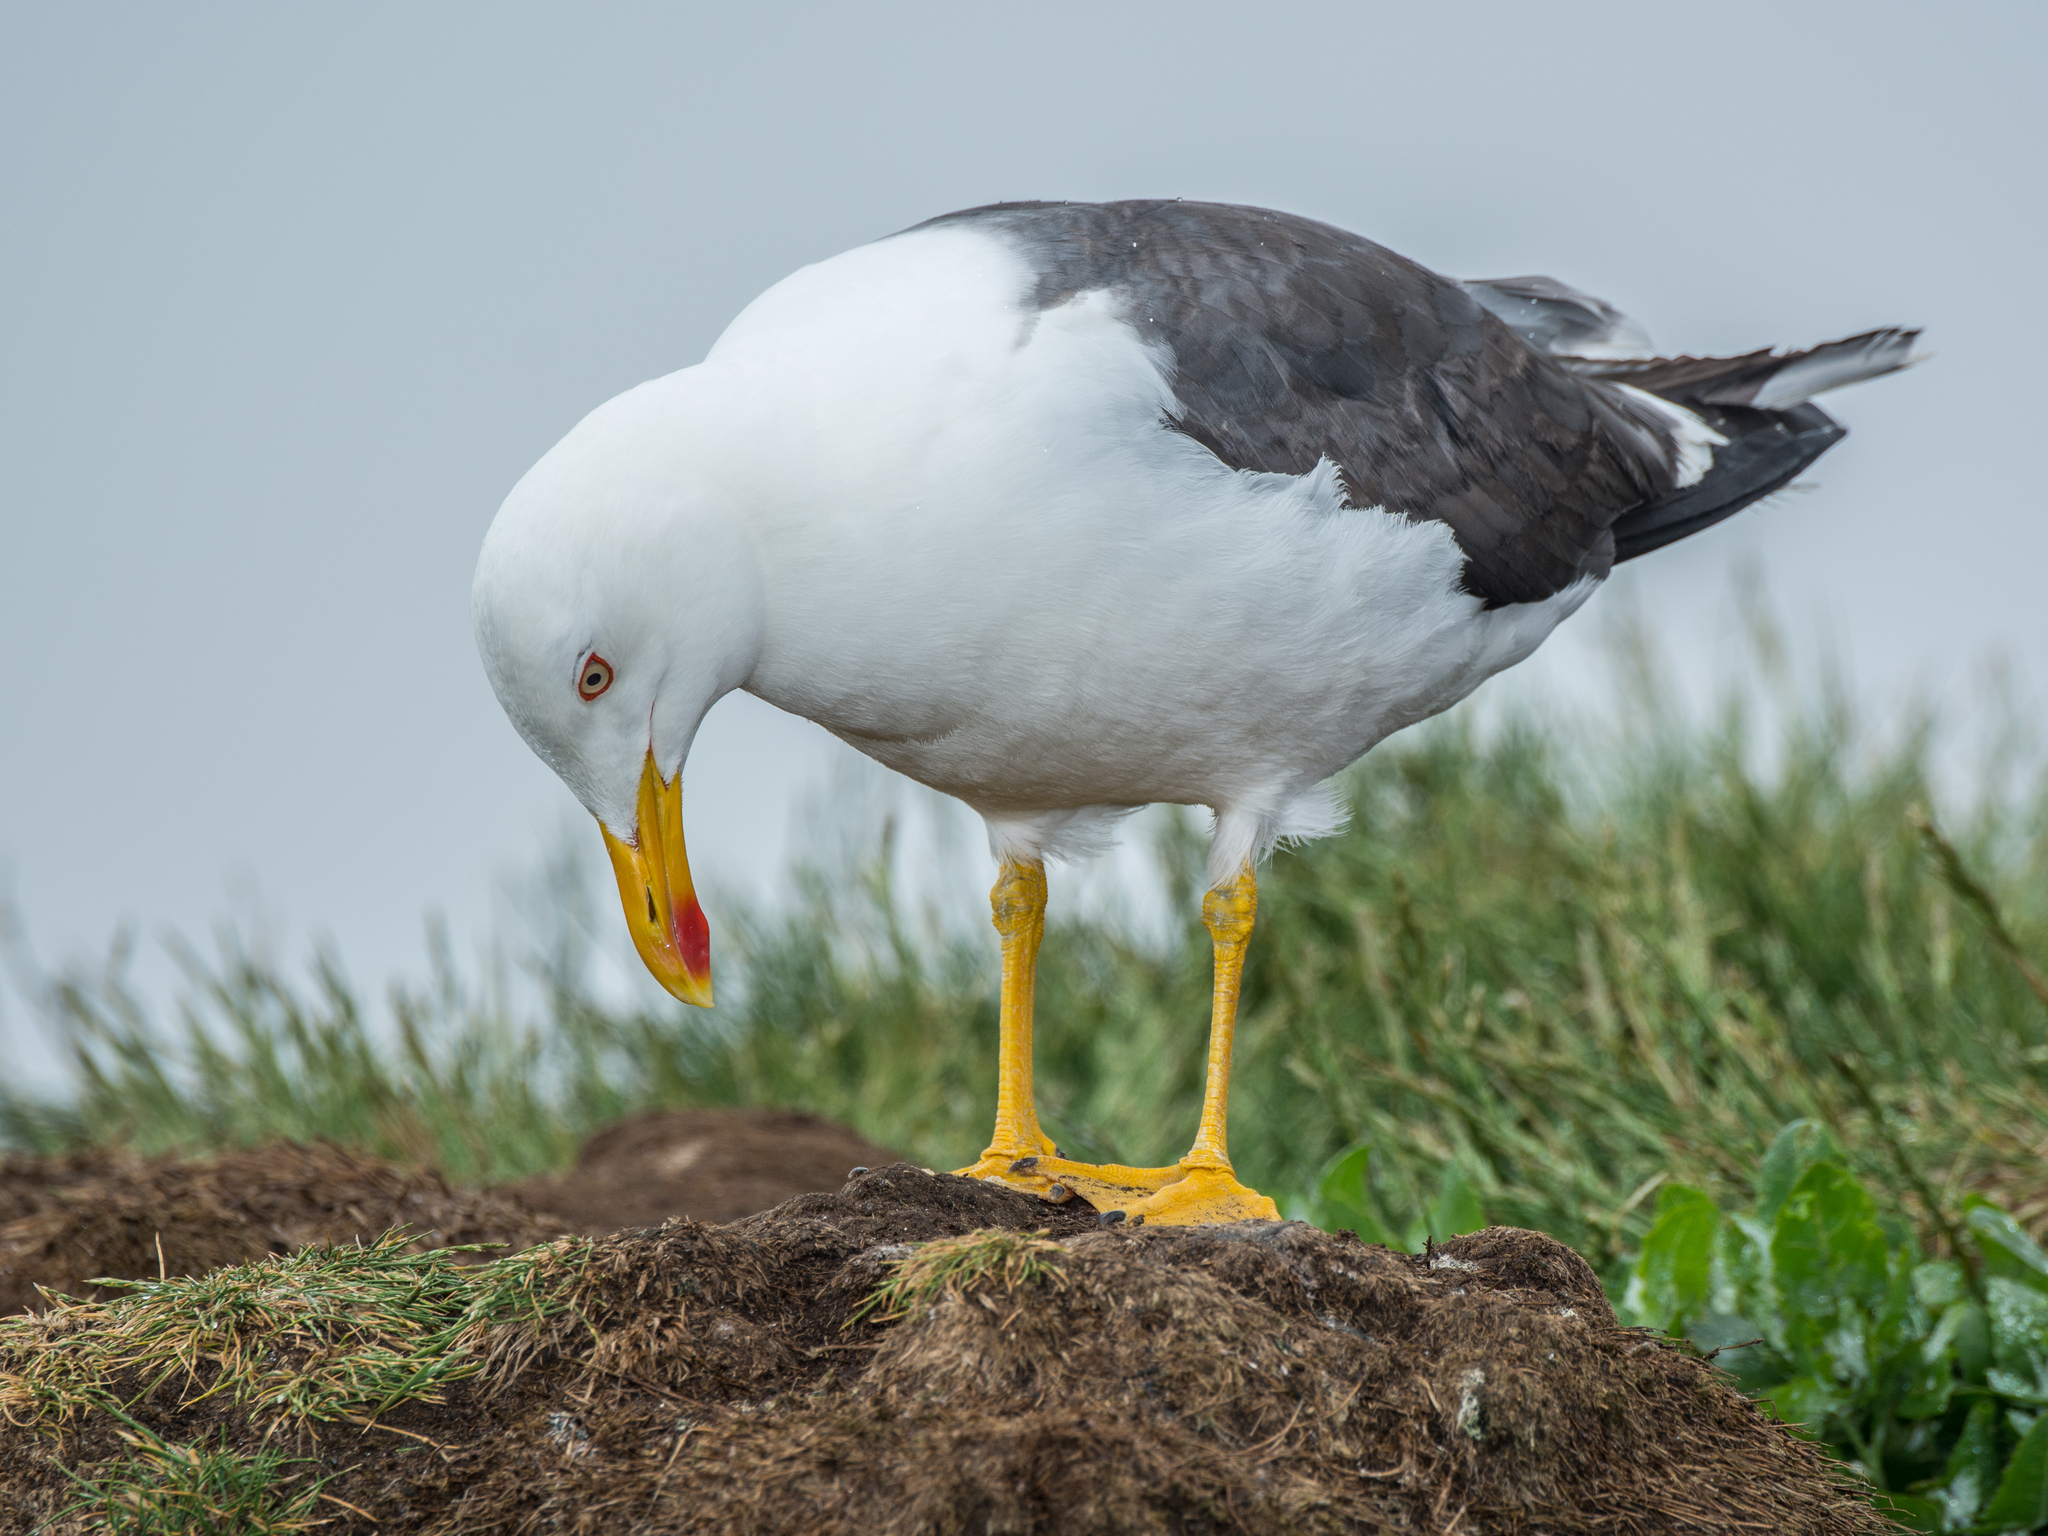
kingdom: Animalia
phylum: Chordata
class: Aves
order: Charadriiformes
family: Laridae
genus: Larus
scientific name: Larus fuscus
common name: Lesser black-backed gull
